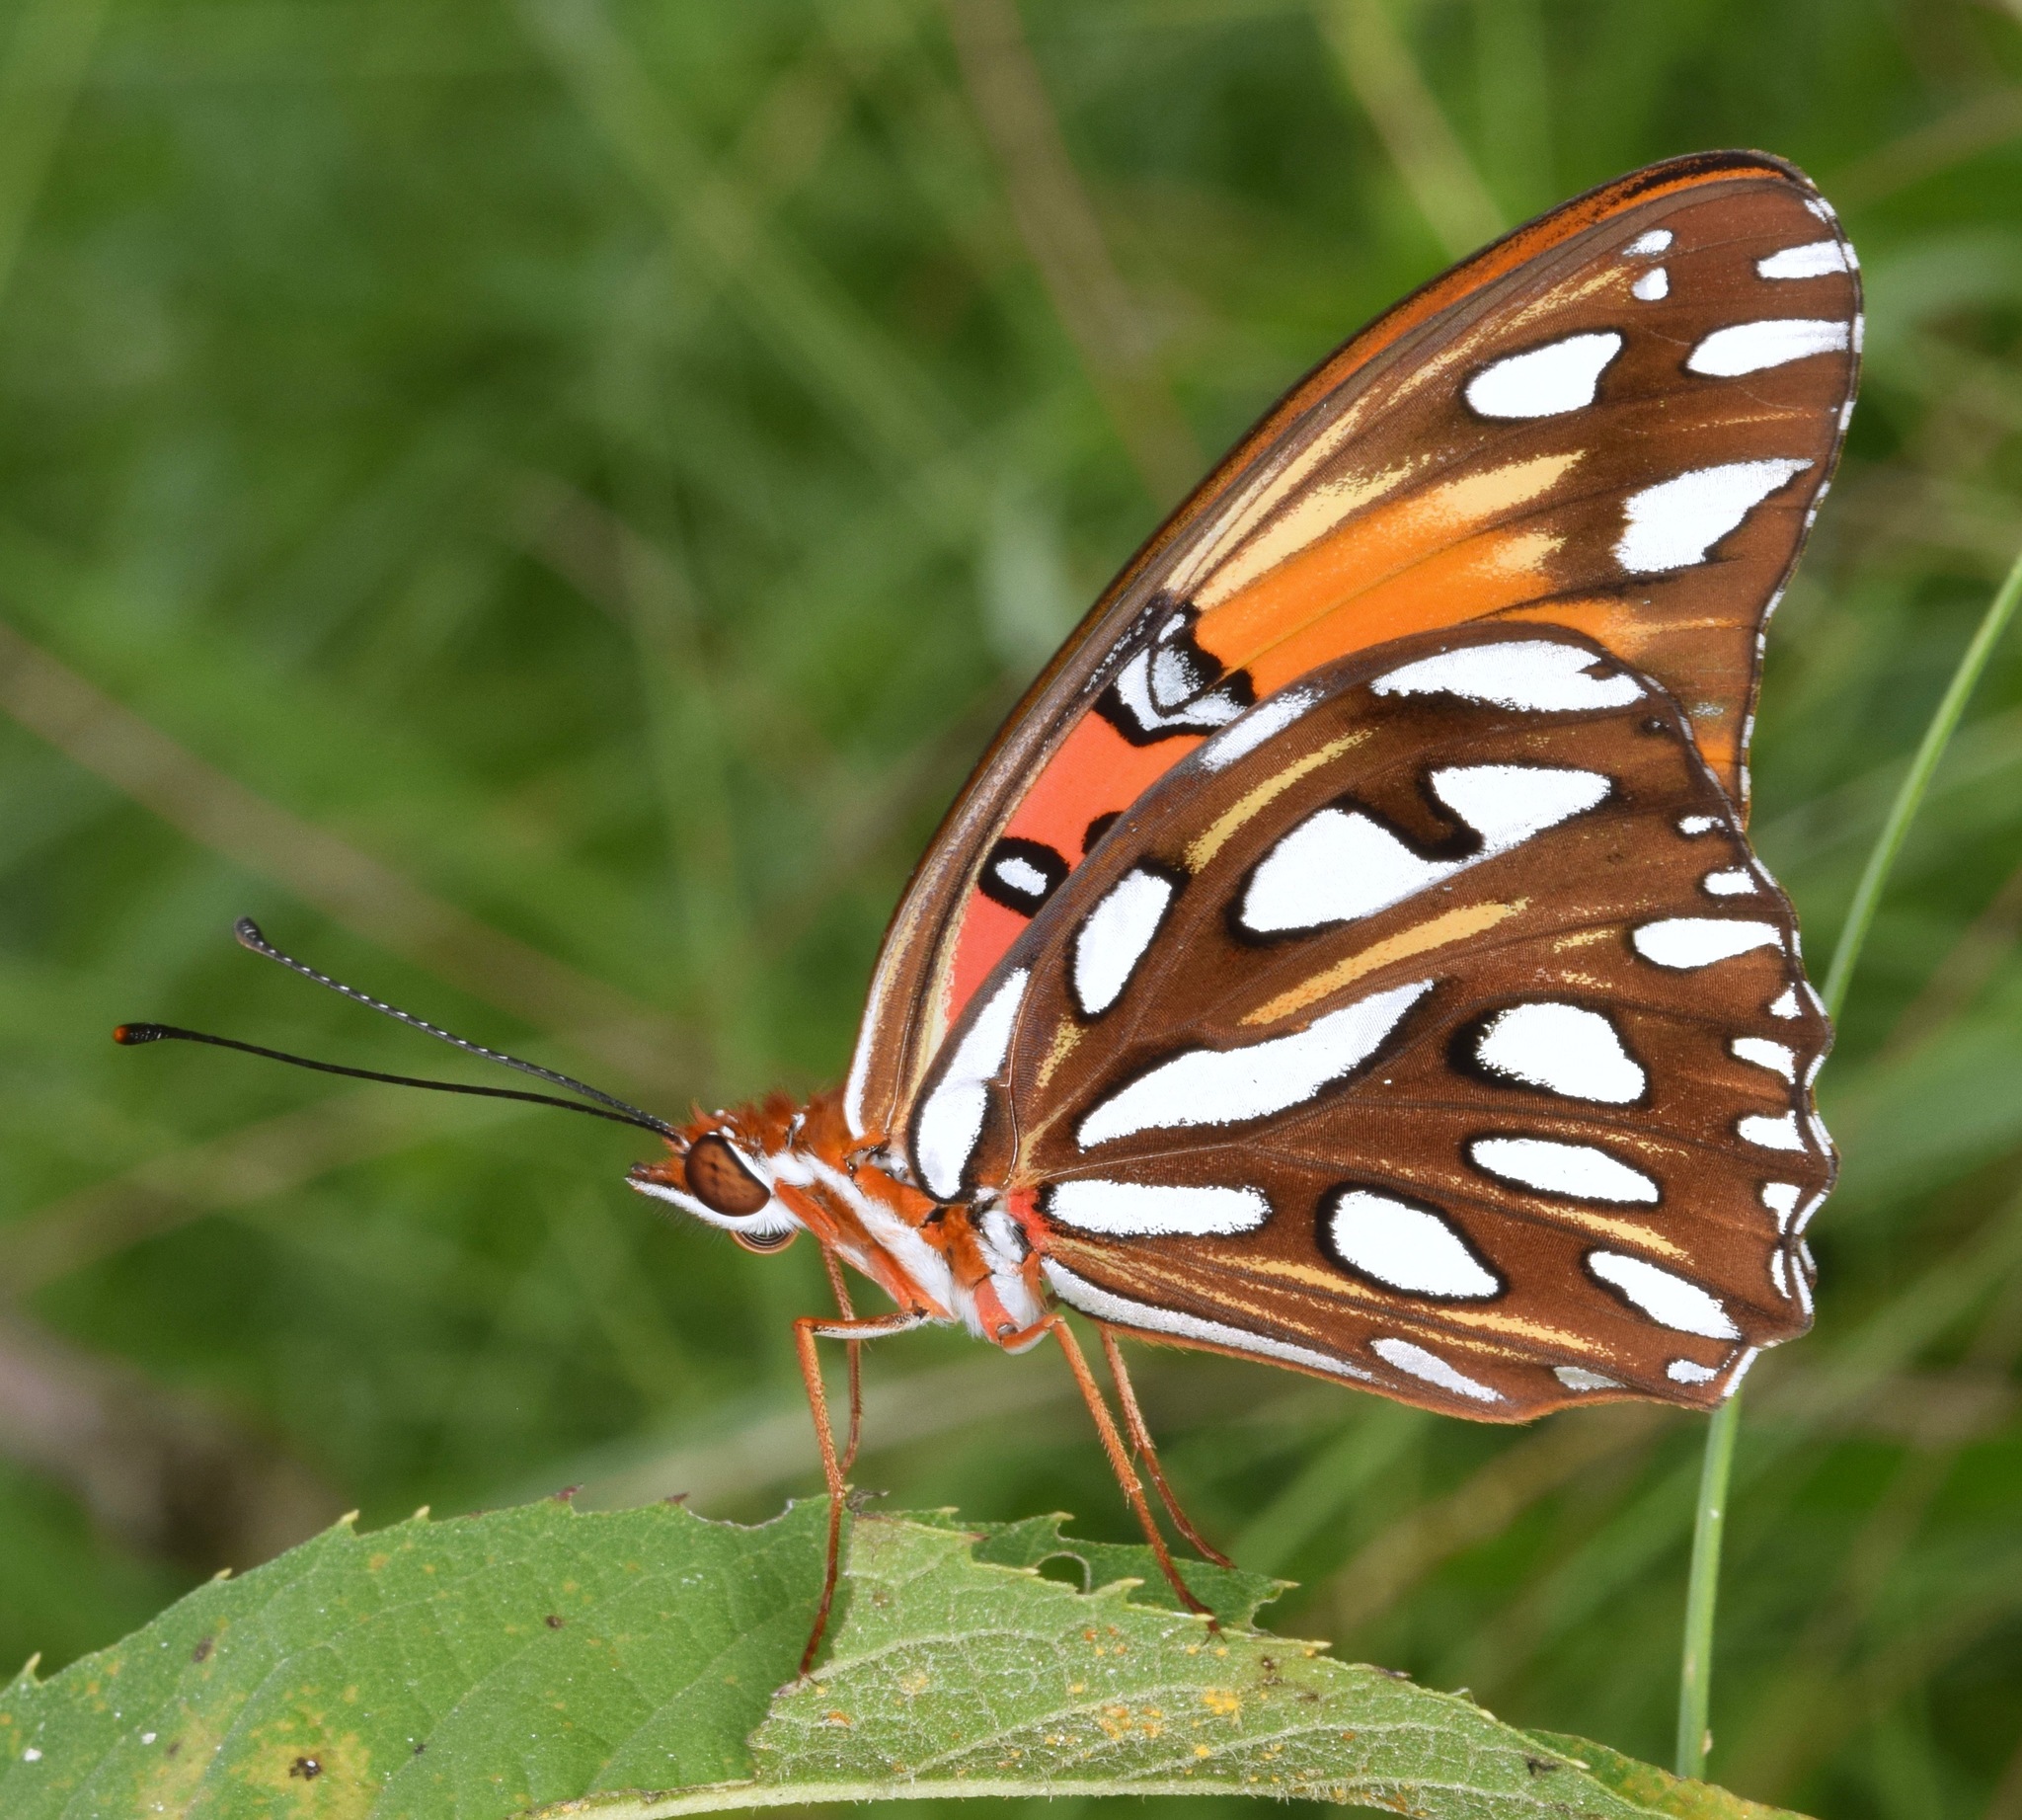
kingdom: Animalia
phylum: Arthropoda
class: Insecta
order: Lepidoptera
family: Nymphalidae
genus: Dione
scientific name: Dione vanillae
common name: Gulf fritillary
